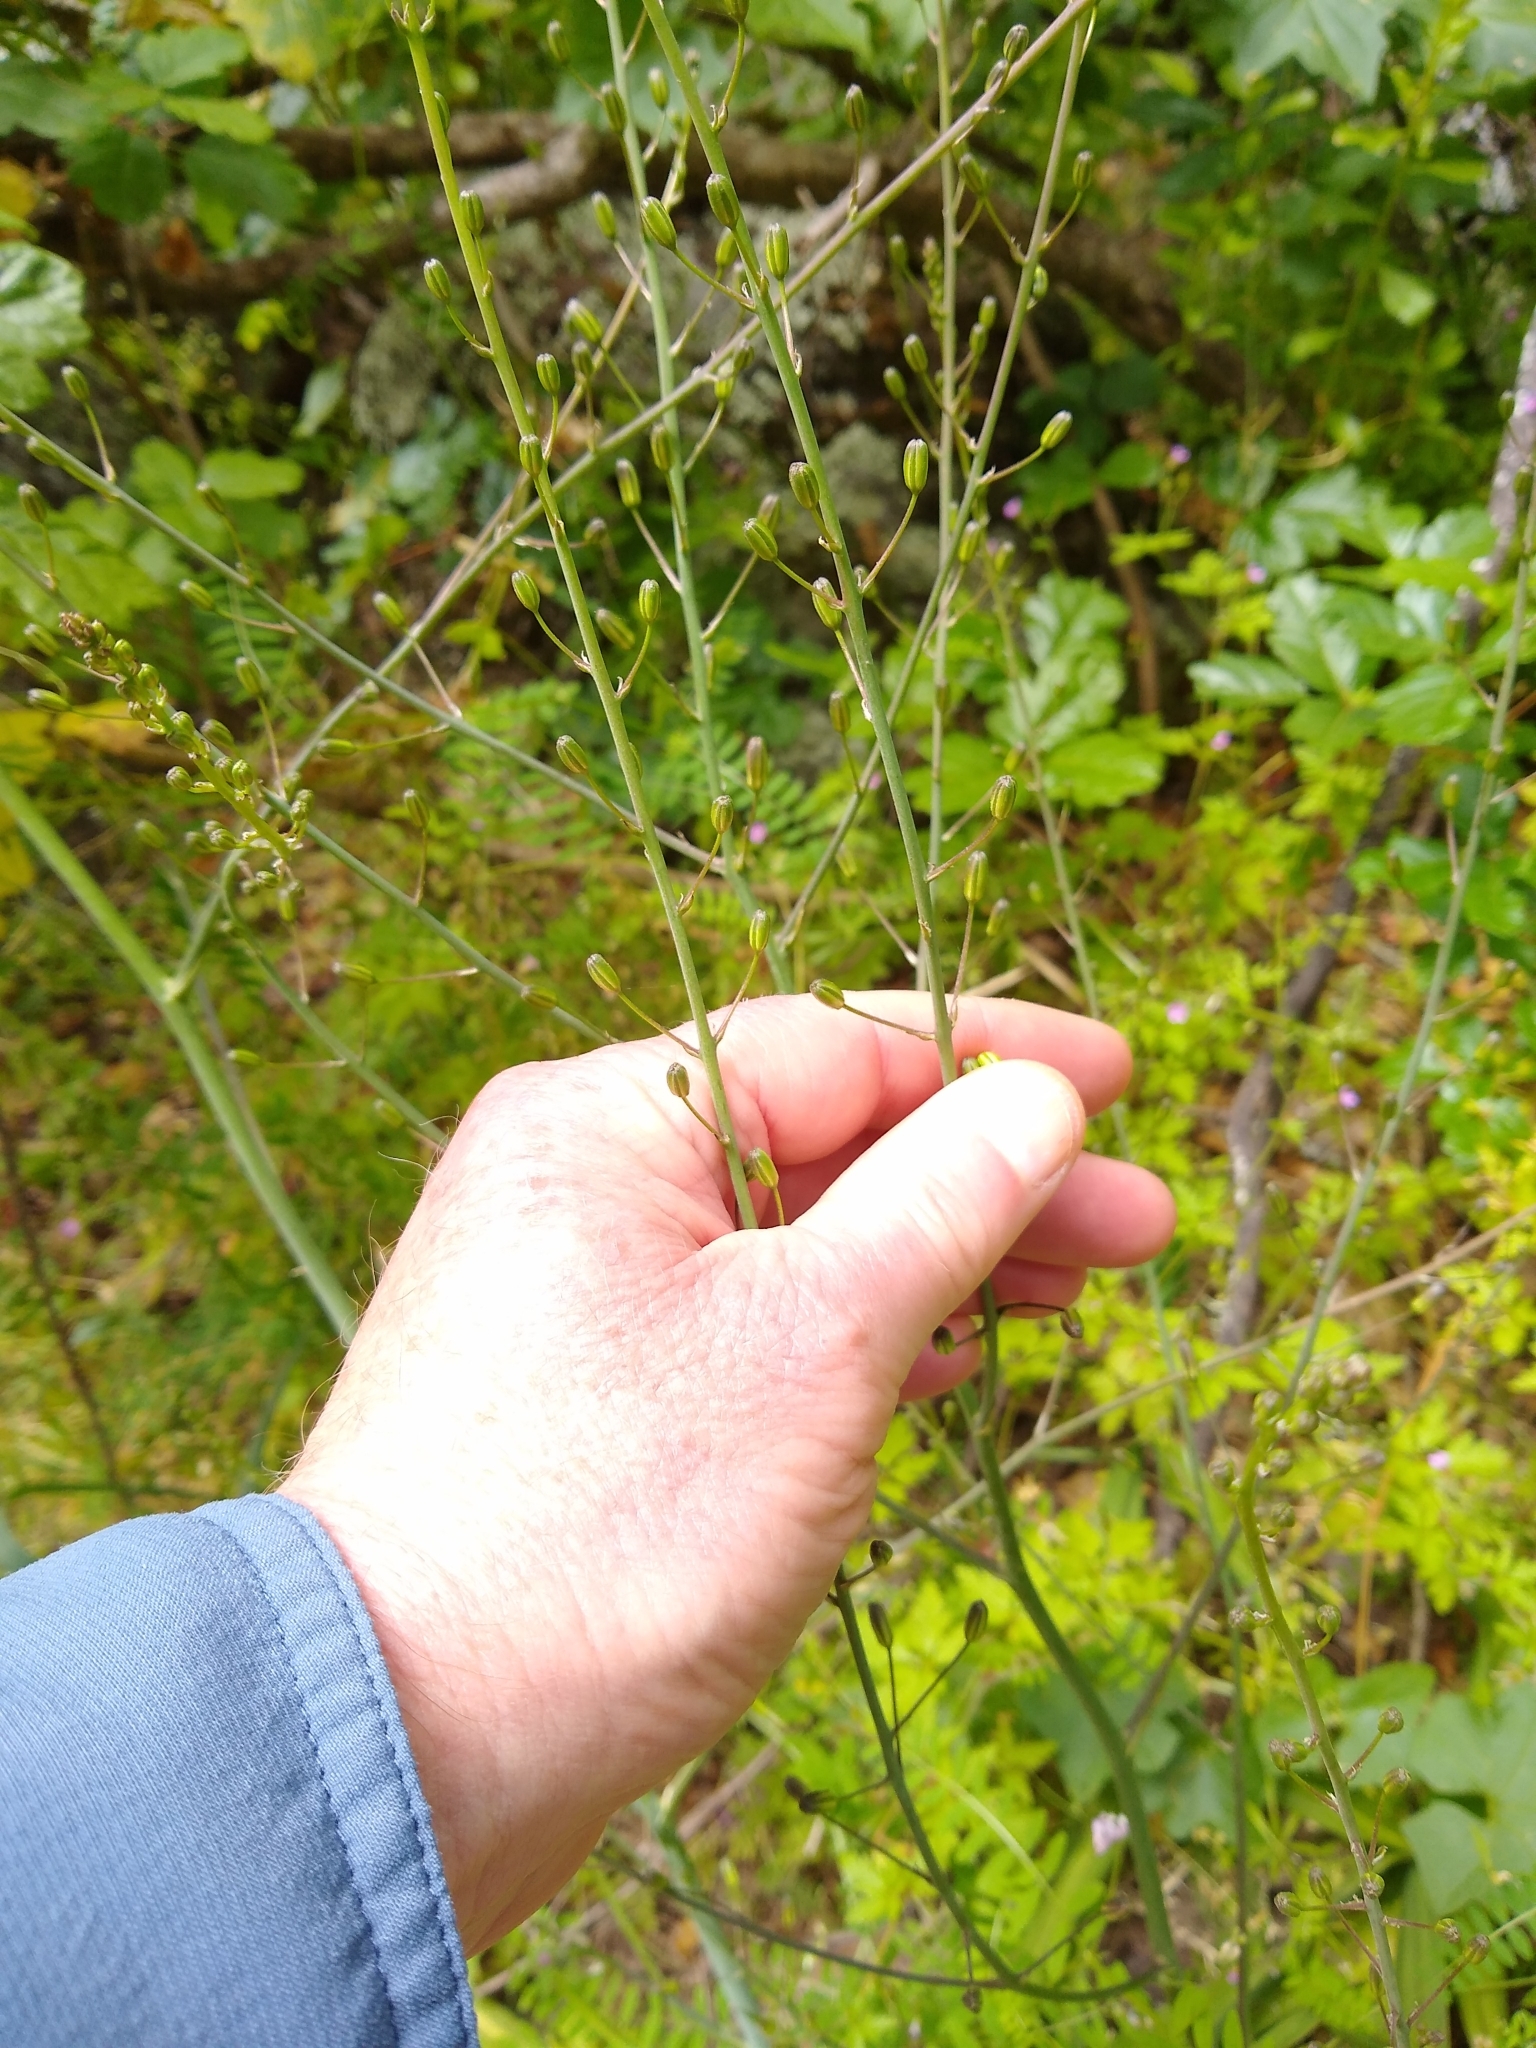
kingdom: Plantae
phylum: Tracheophyta
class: Liliopsida
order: Asparagales
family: Asparagaceae
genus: Chlorogalum
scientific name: Chlorogalum pomeridianum
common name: Amole
